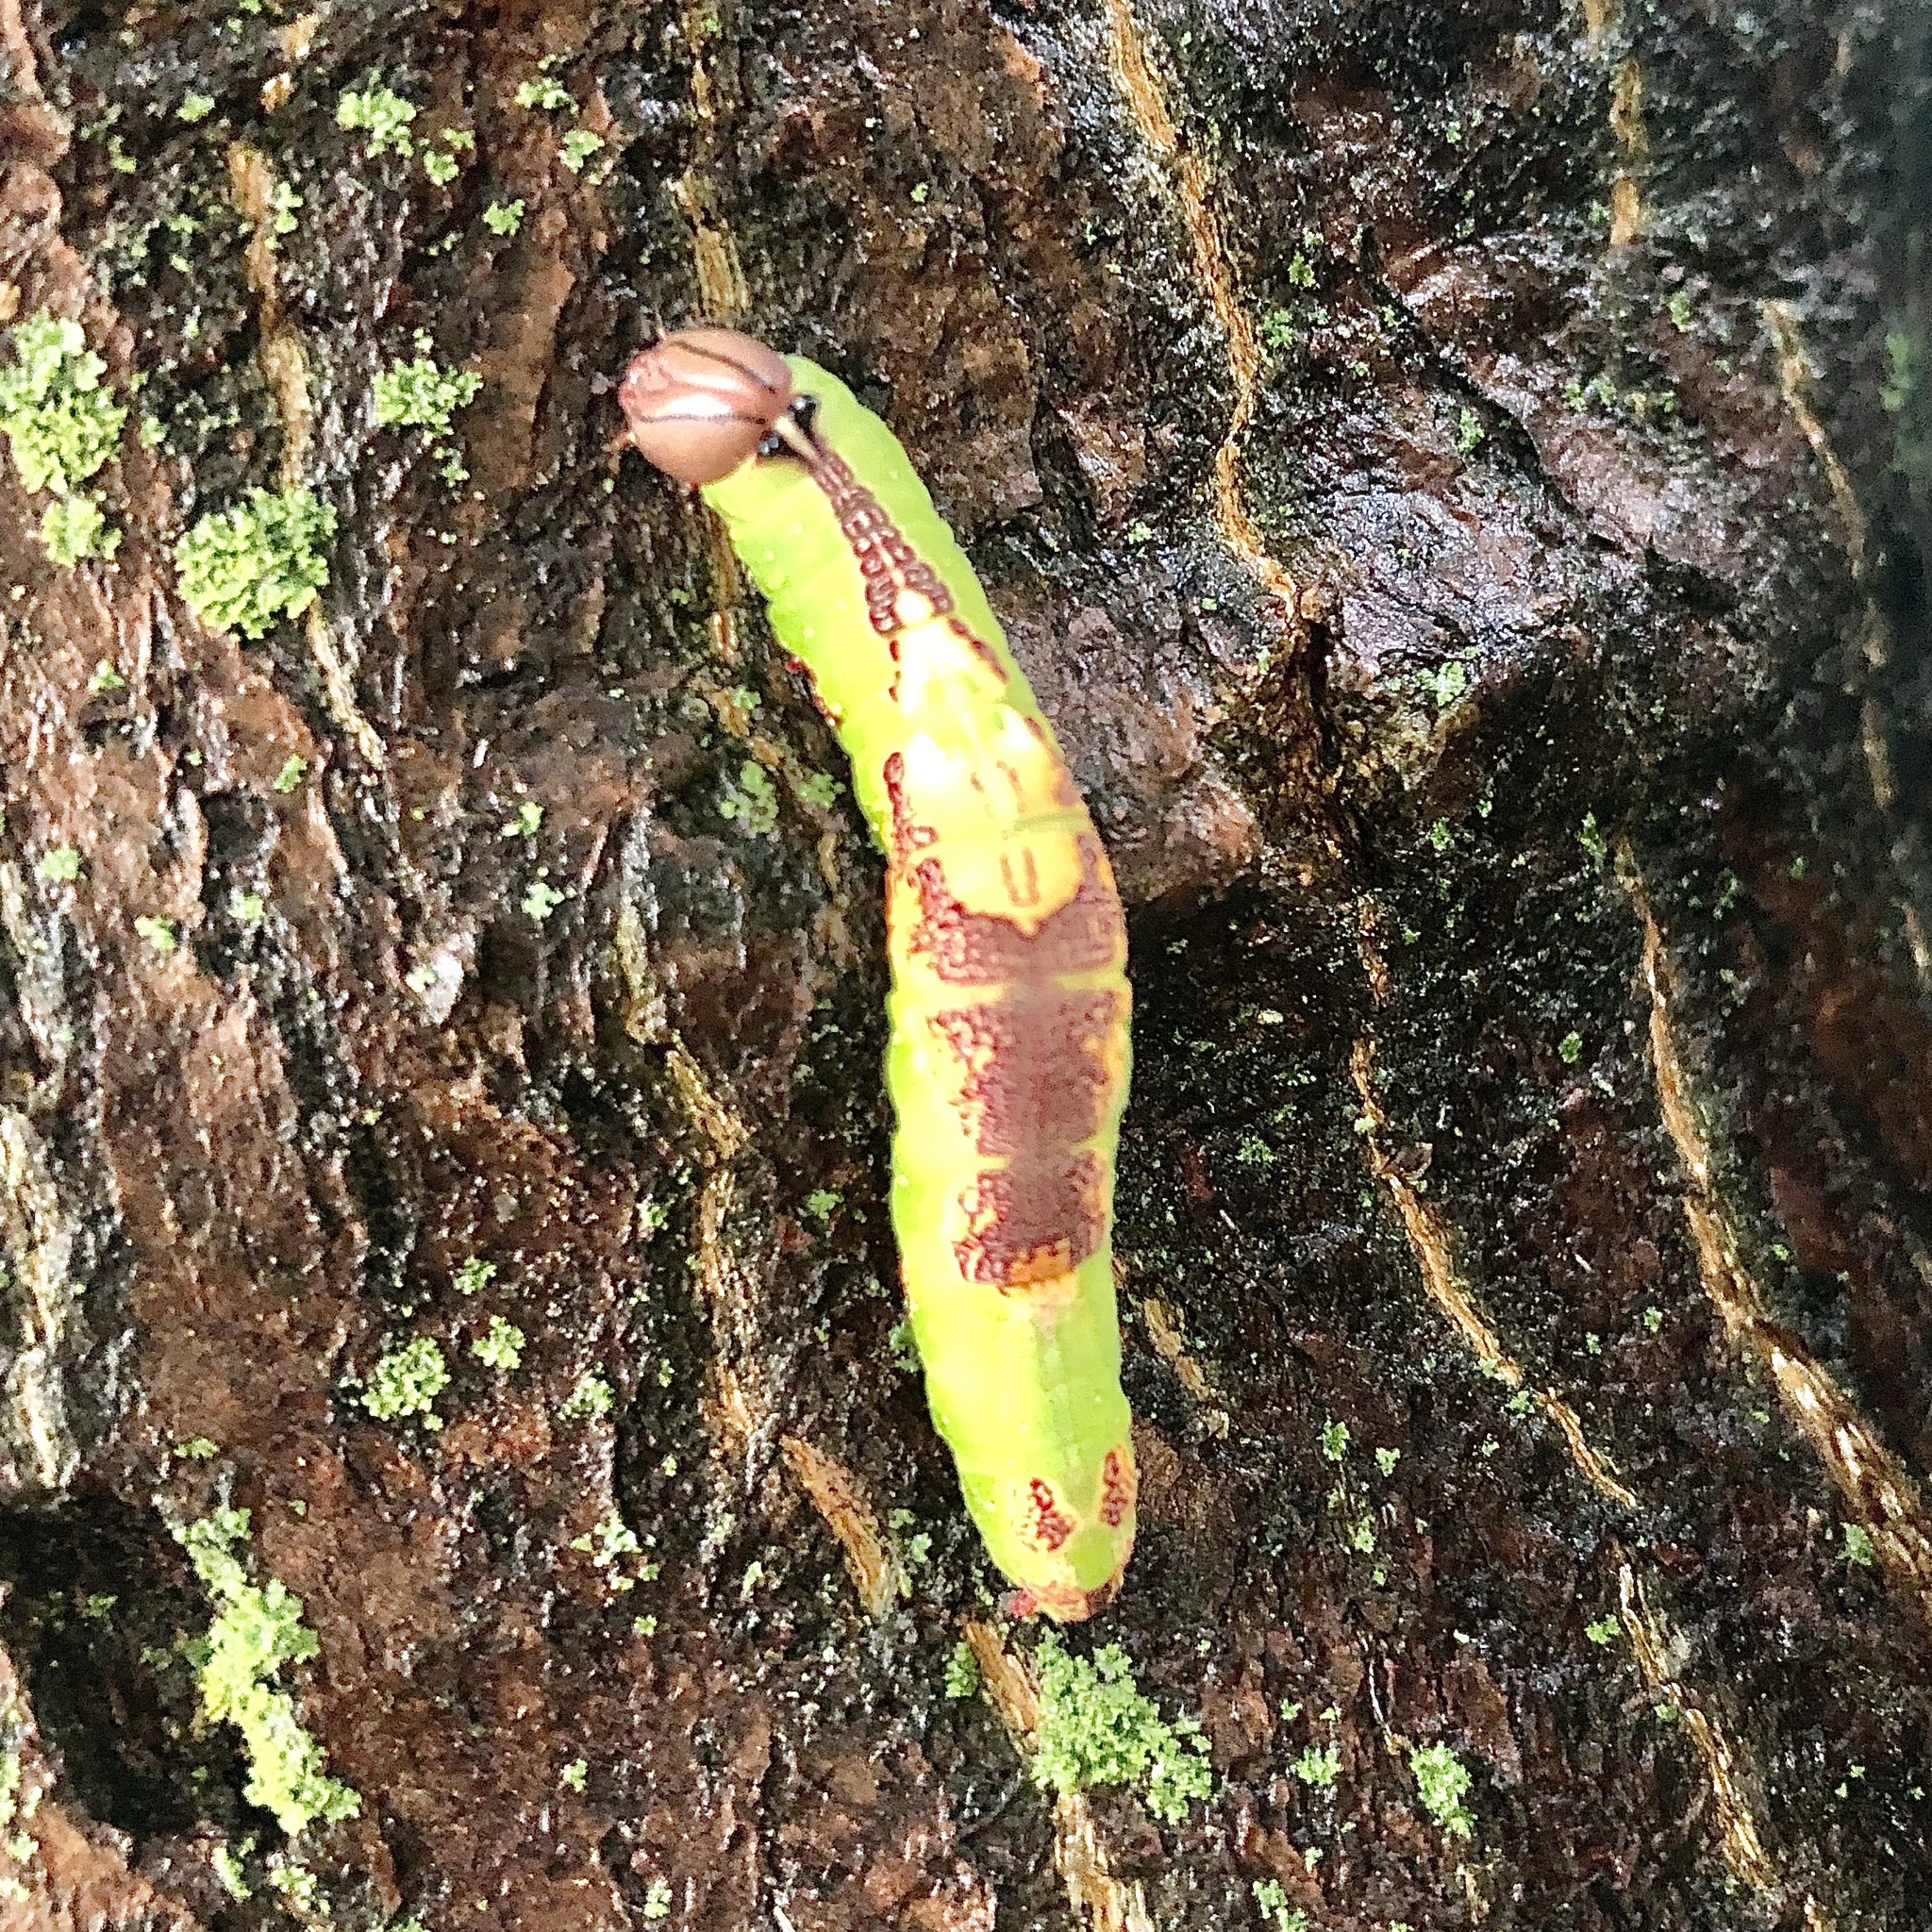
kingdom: Animalia
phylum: Arthropoda
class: Insecta
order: Lepidoptera
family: Notodontidae
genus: Heterocampa
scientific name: Heterocampa
